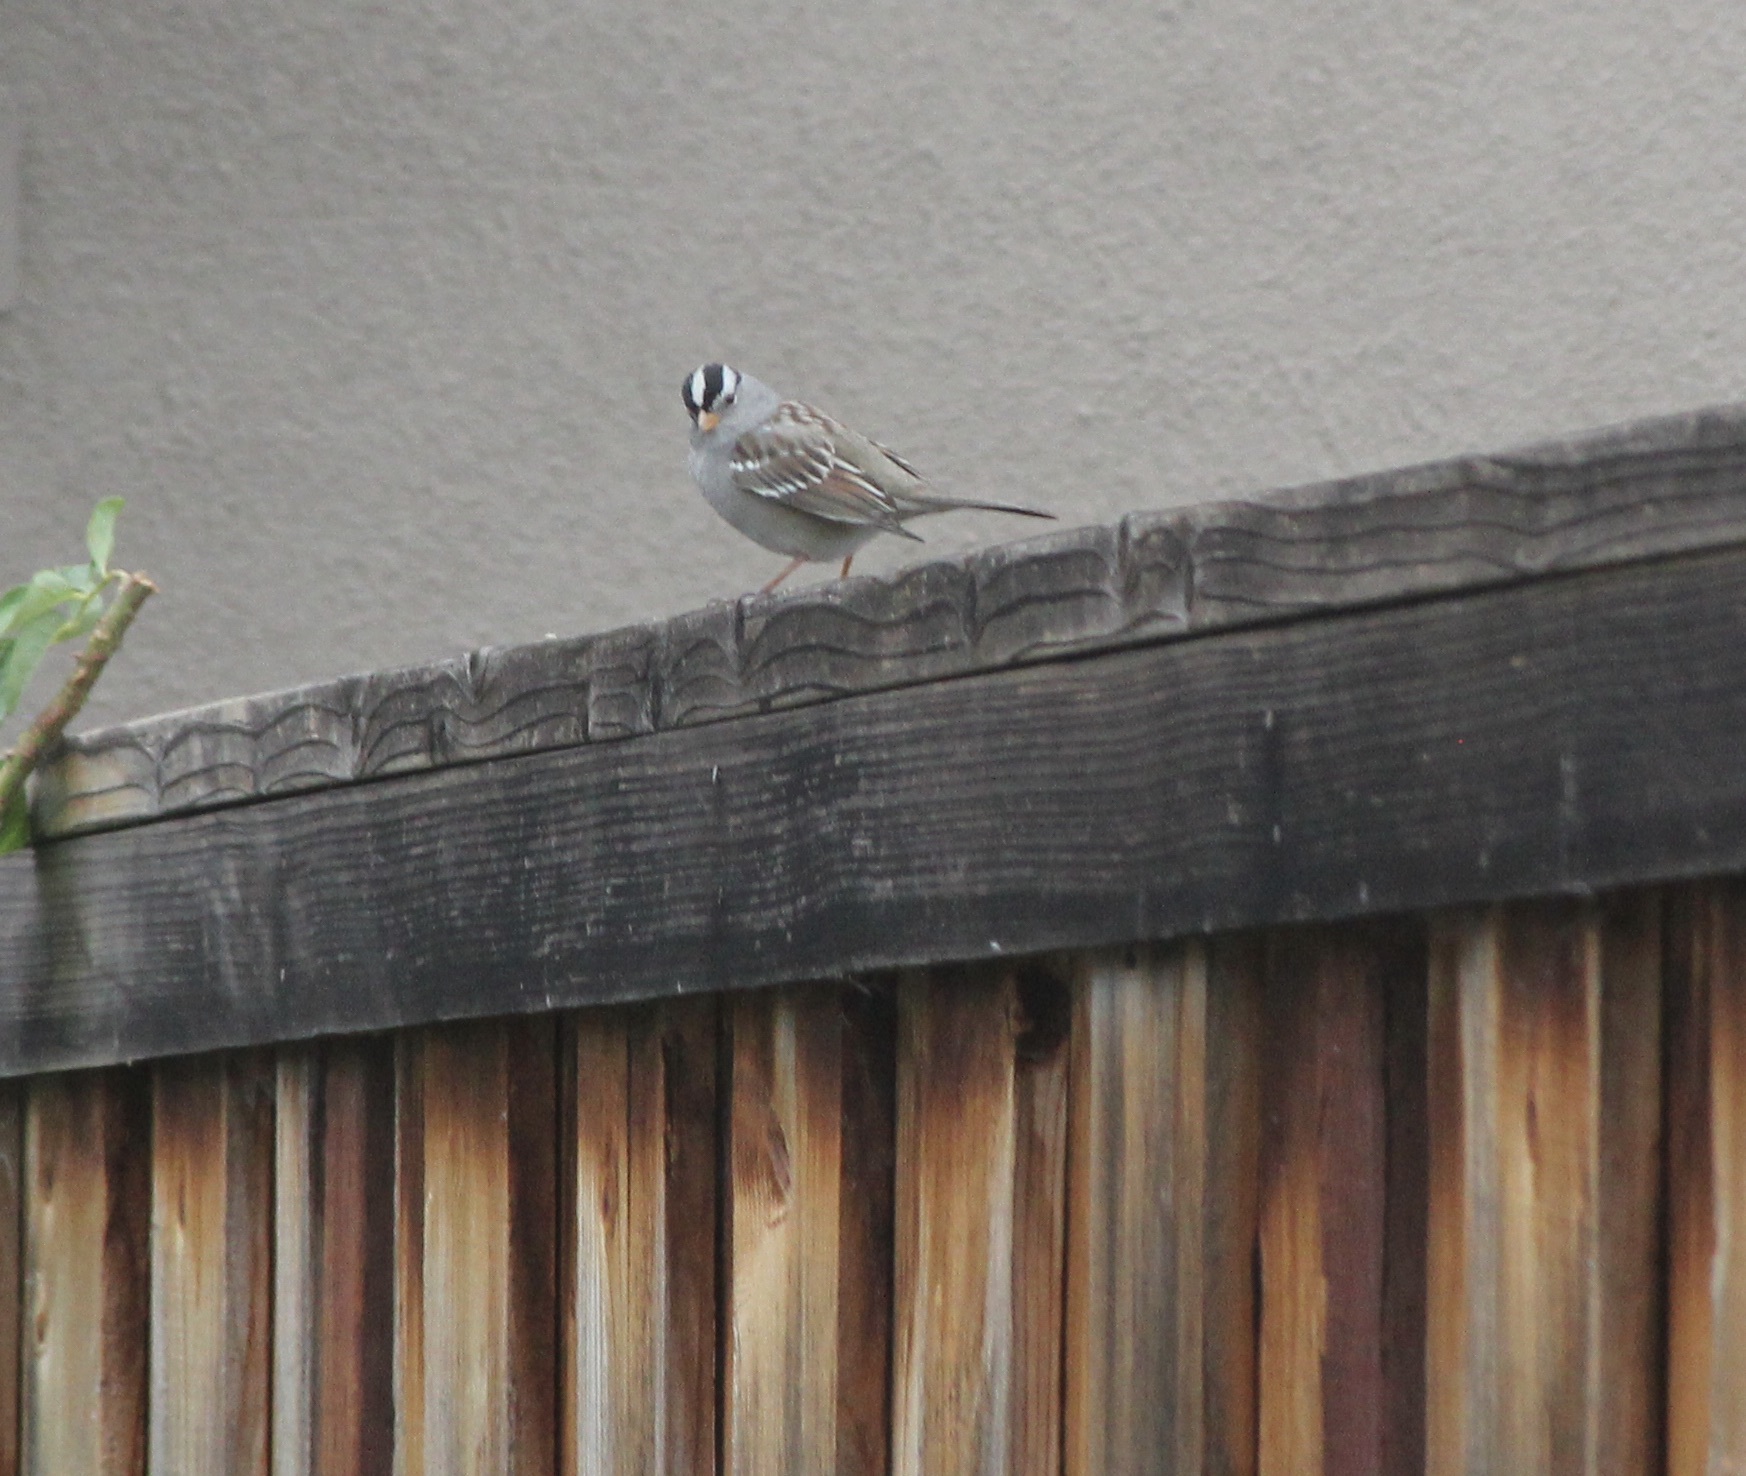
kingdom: Animalia
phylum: Chordata
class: Aves
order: Passeriformes
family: Passerellidae
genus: Zonotrichia
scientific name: Zonotrichia leucophrys
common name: White-crowned sparrow
